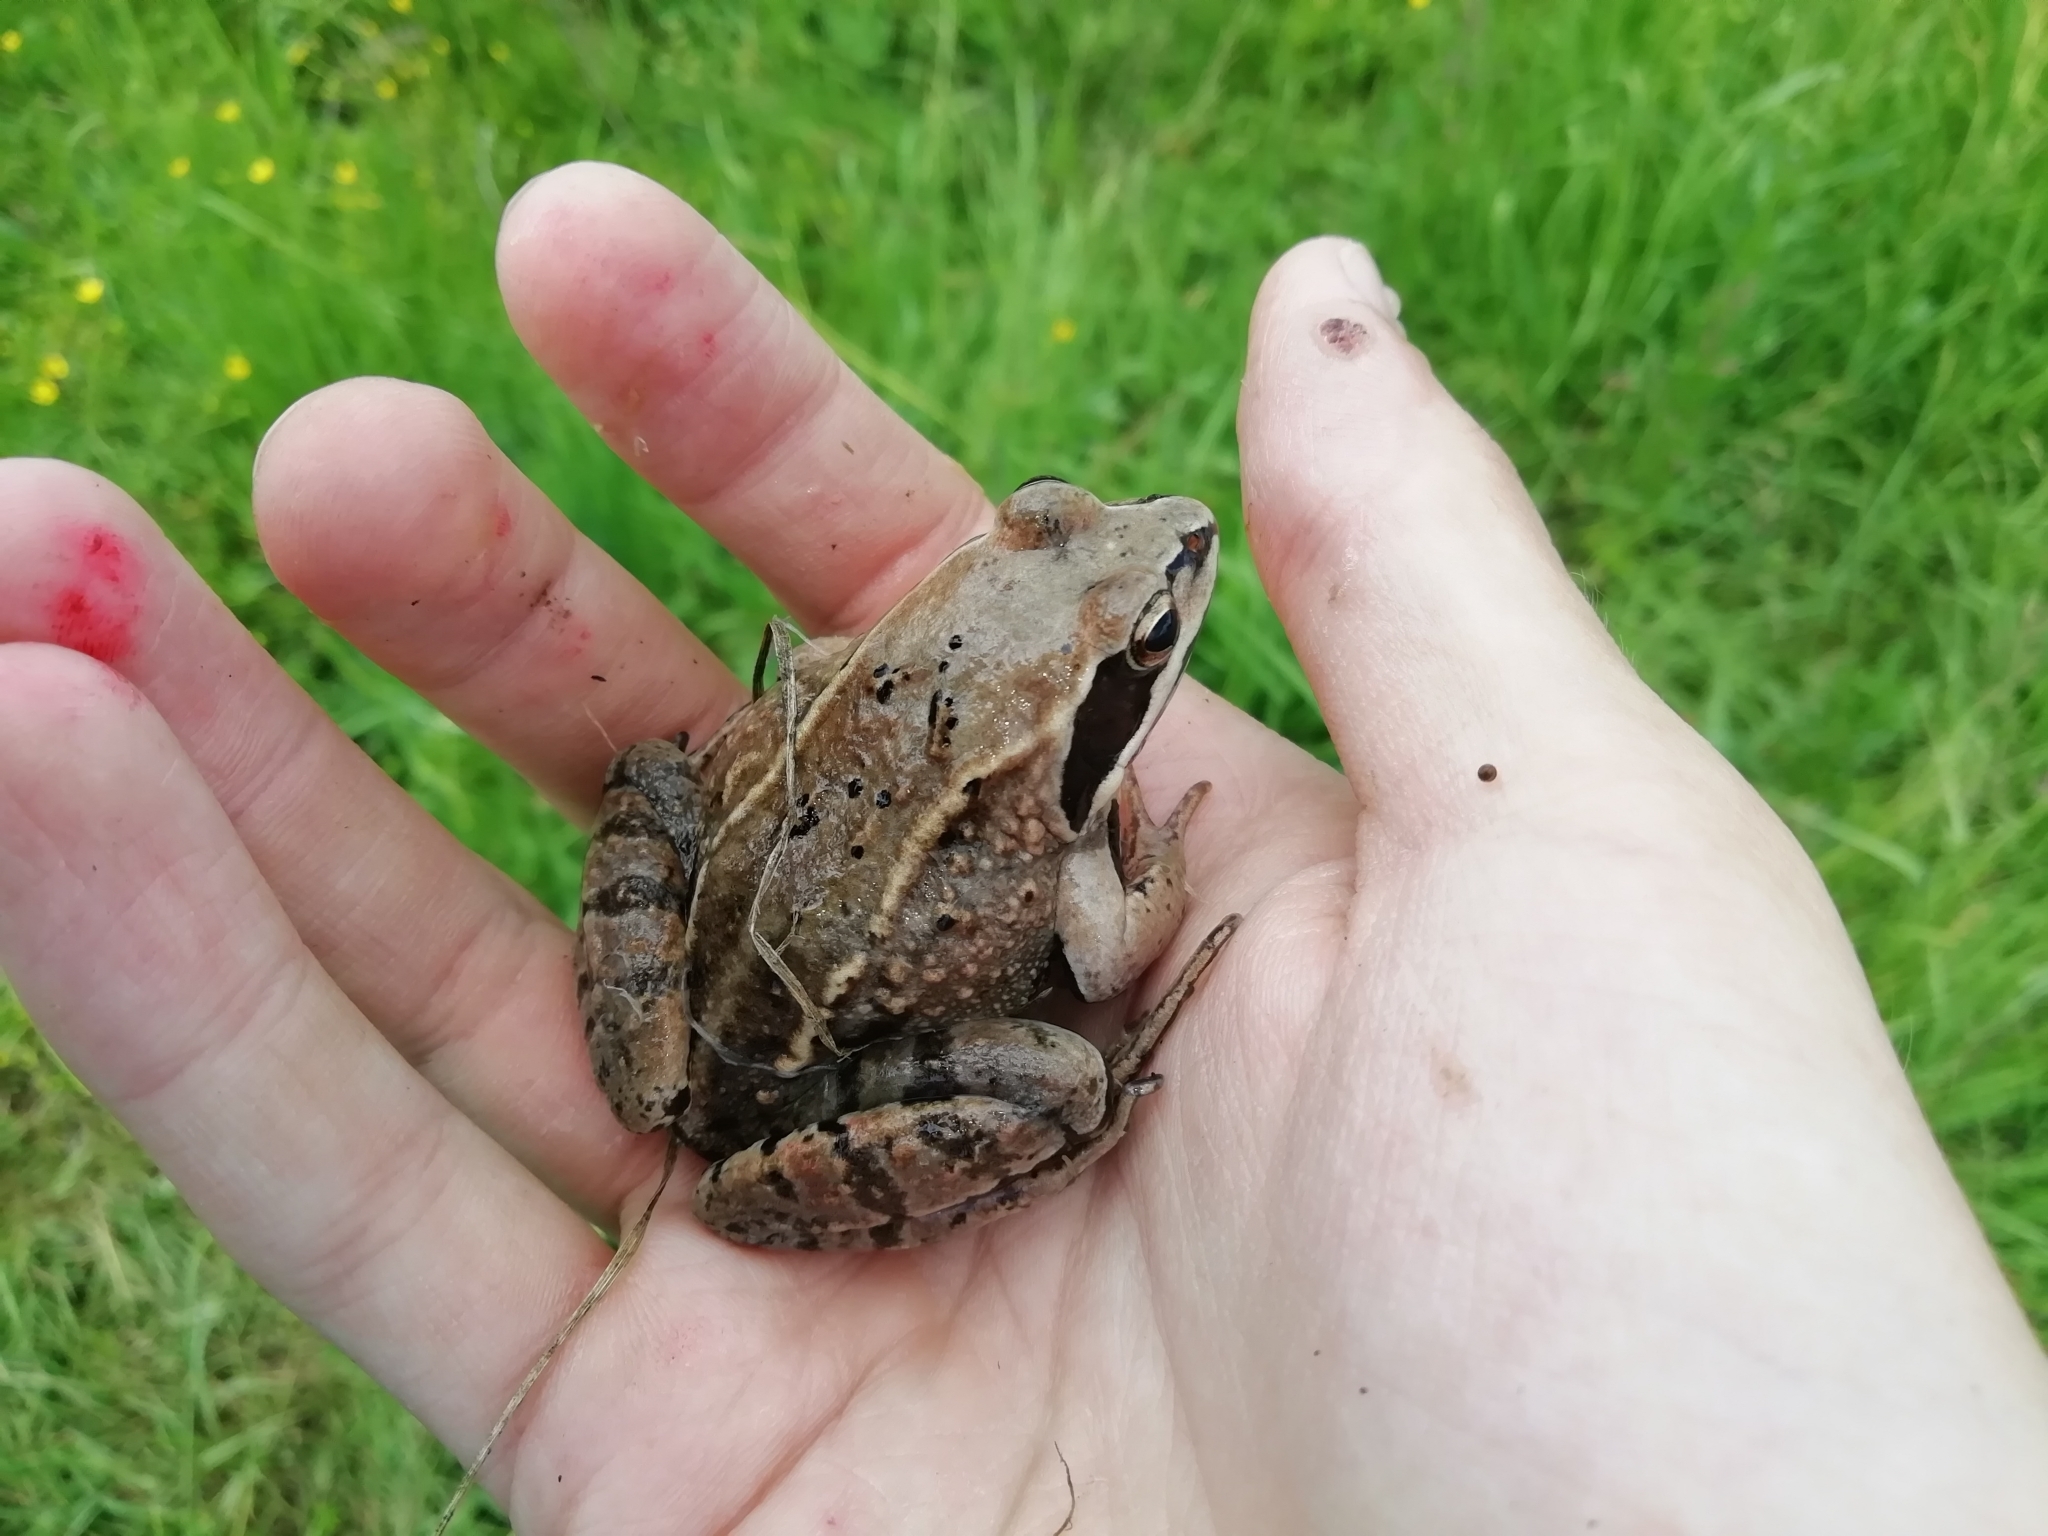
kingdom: Animalia
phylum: Chordata
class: Amphibia
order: Anura
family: Ranidae
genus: Rana
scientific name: Rana arvalis
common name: Moor frog
